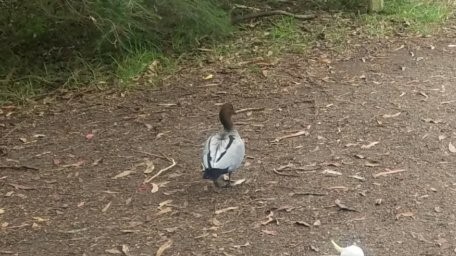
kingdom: Animalia
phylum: Chordata
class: Aves
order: Anseriformes
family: Anatidae
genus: Chenonetta
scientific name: Chenonetta jubata
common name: Maned duck
